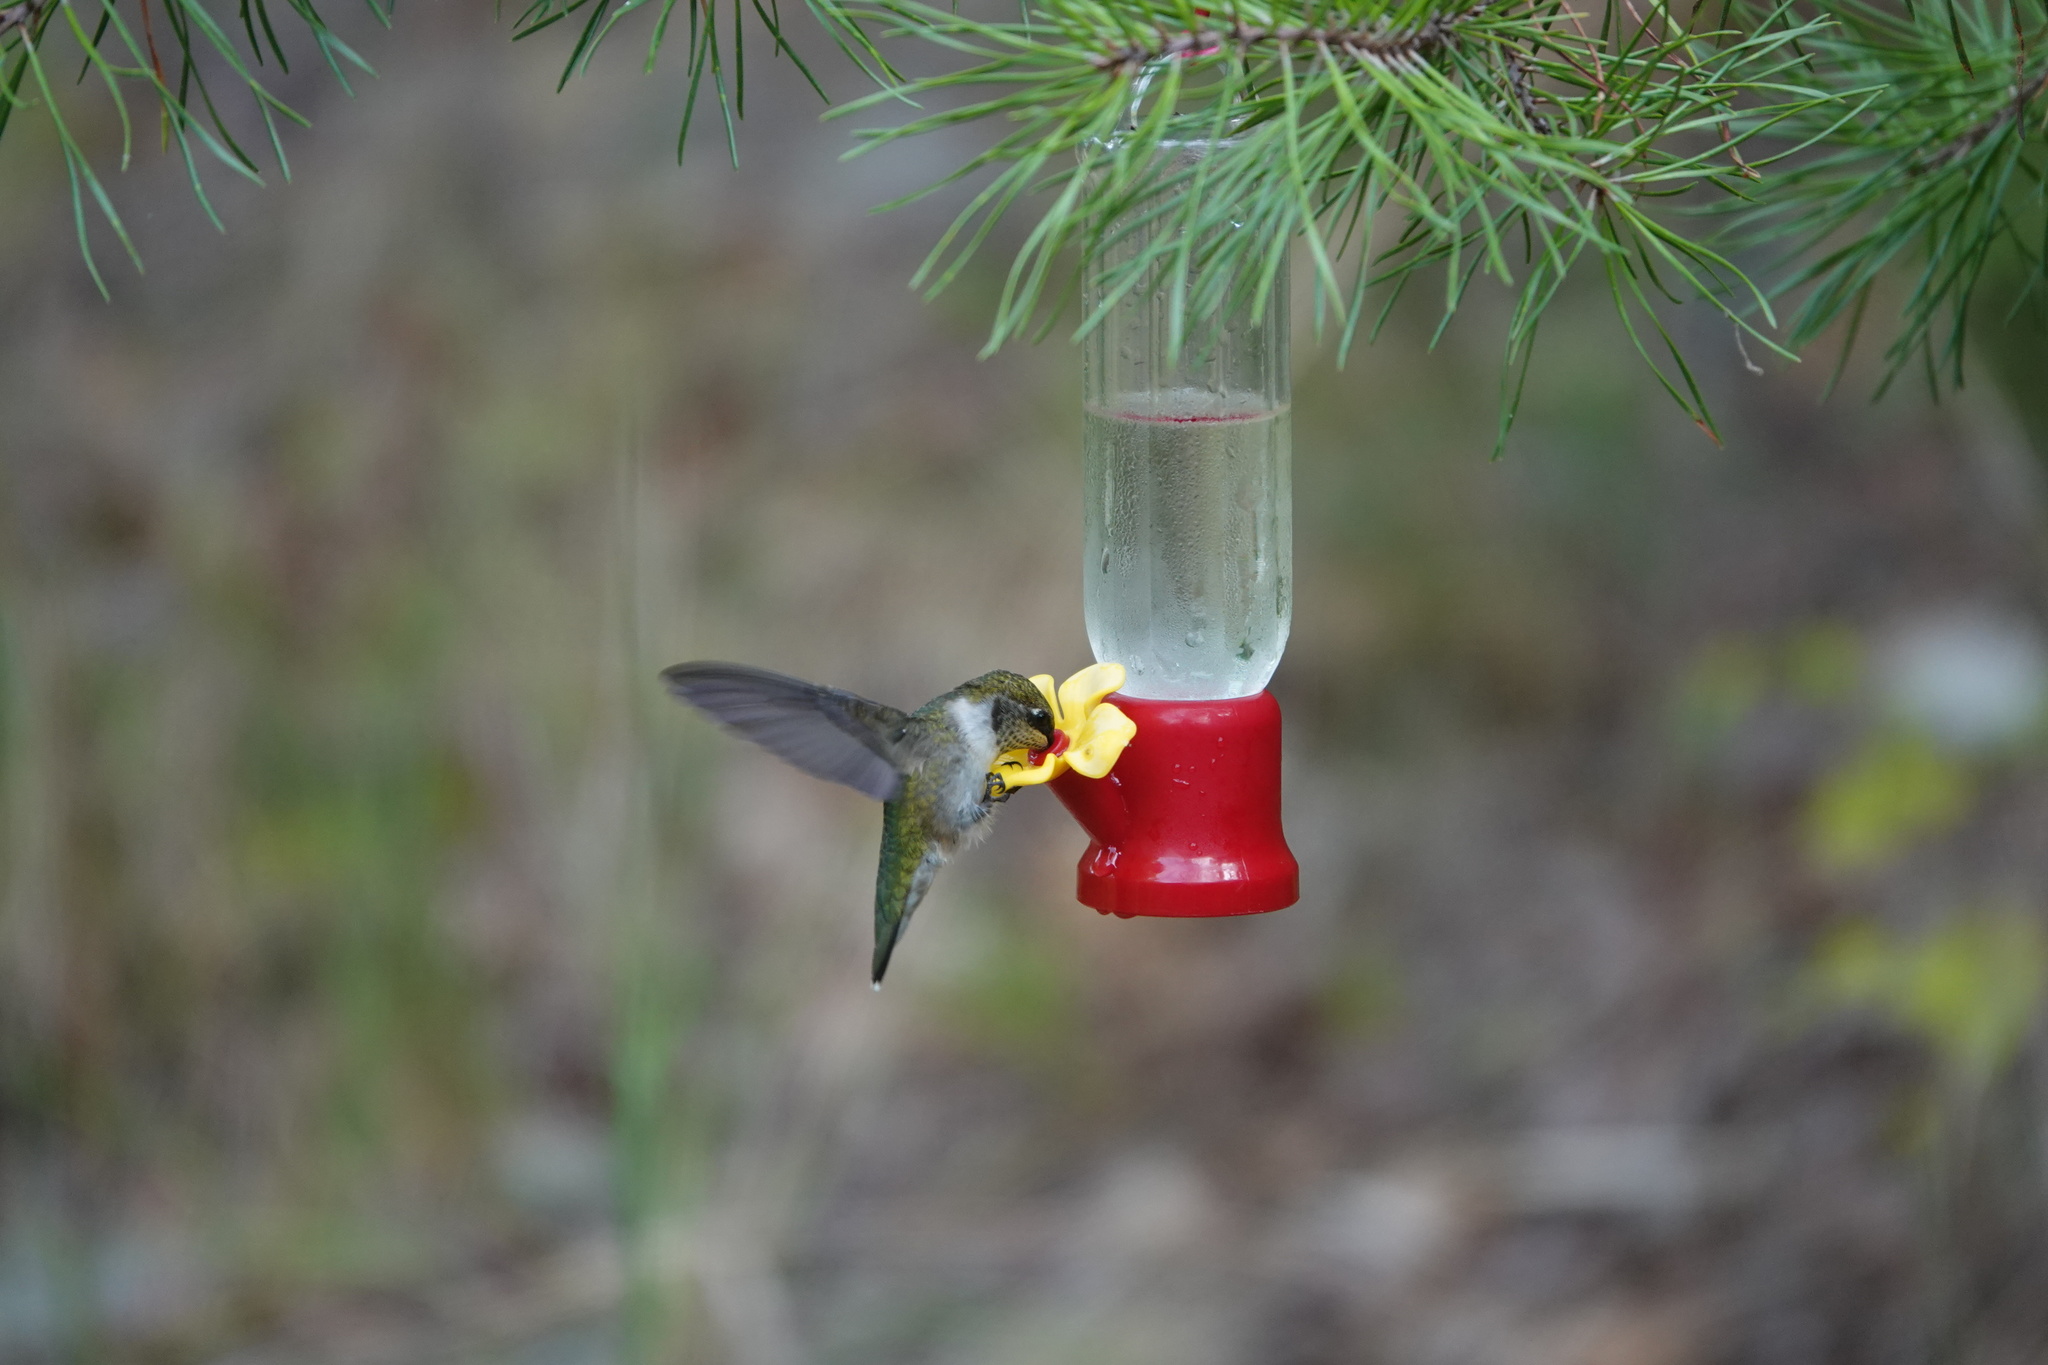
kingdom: Animalia
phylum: Chordata
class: Aves
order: Apodiformes
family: Trochilidae
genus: Archilochus
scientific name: Archilochus colubris
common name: Ruby-throated hummingbird
